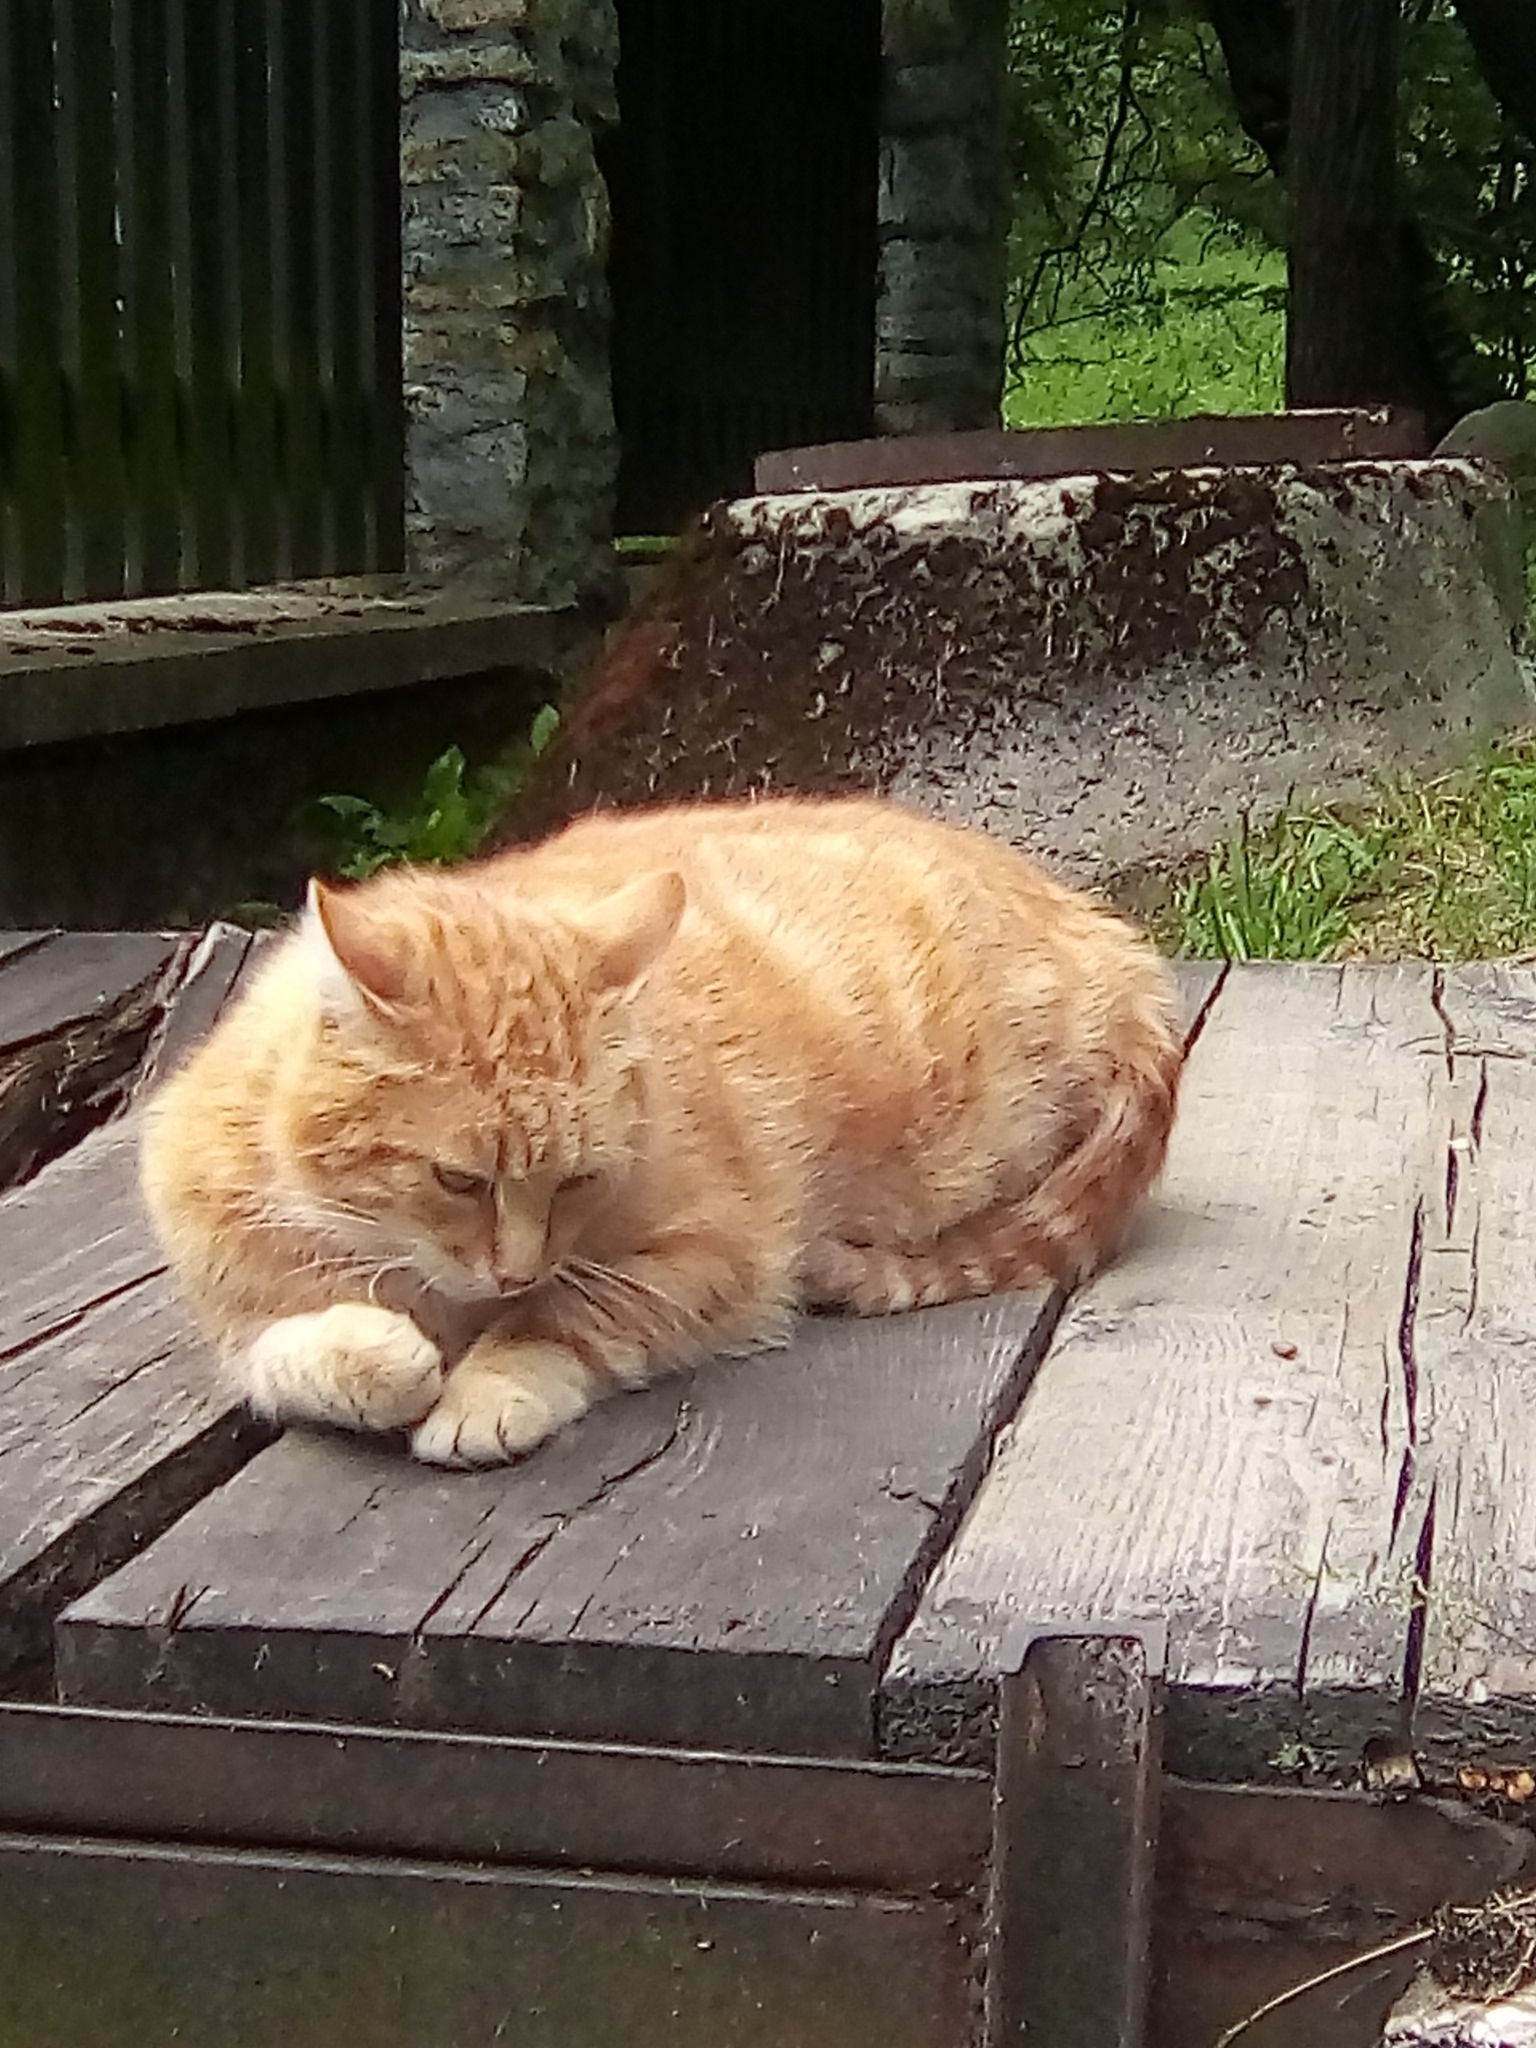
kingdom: Animalia
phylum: Chordata
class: Mammalia
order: Carnivora
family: Felidae
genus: Felis
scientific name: Felis catus
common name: Domestic cat
